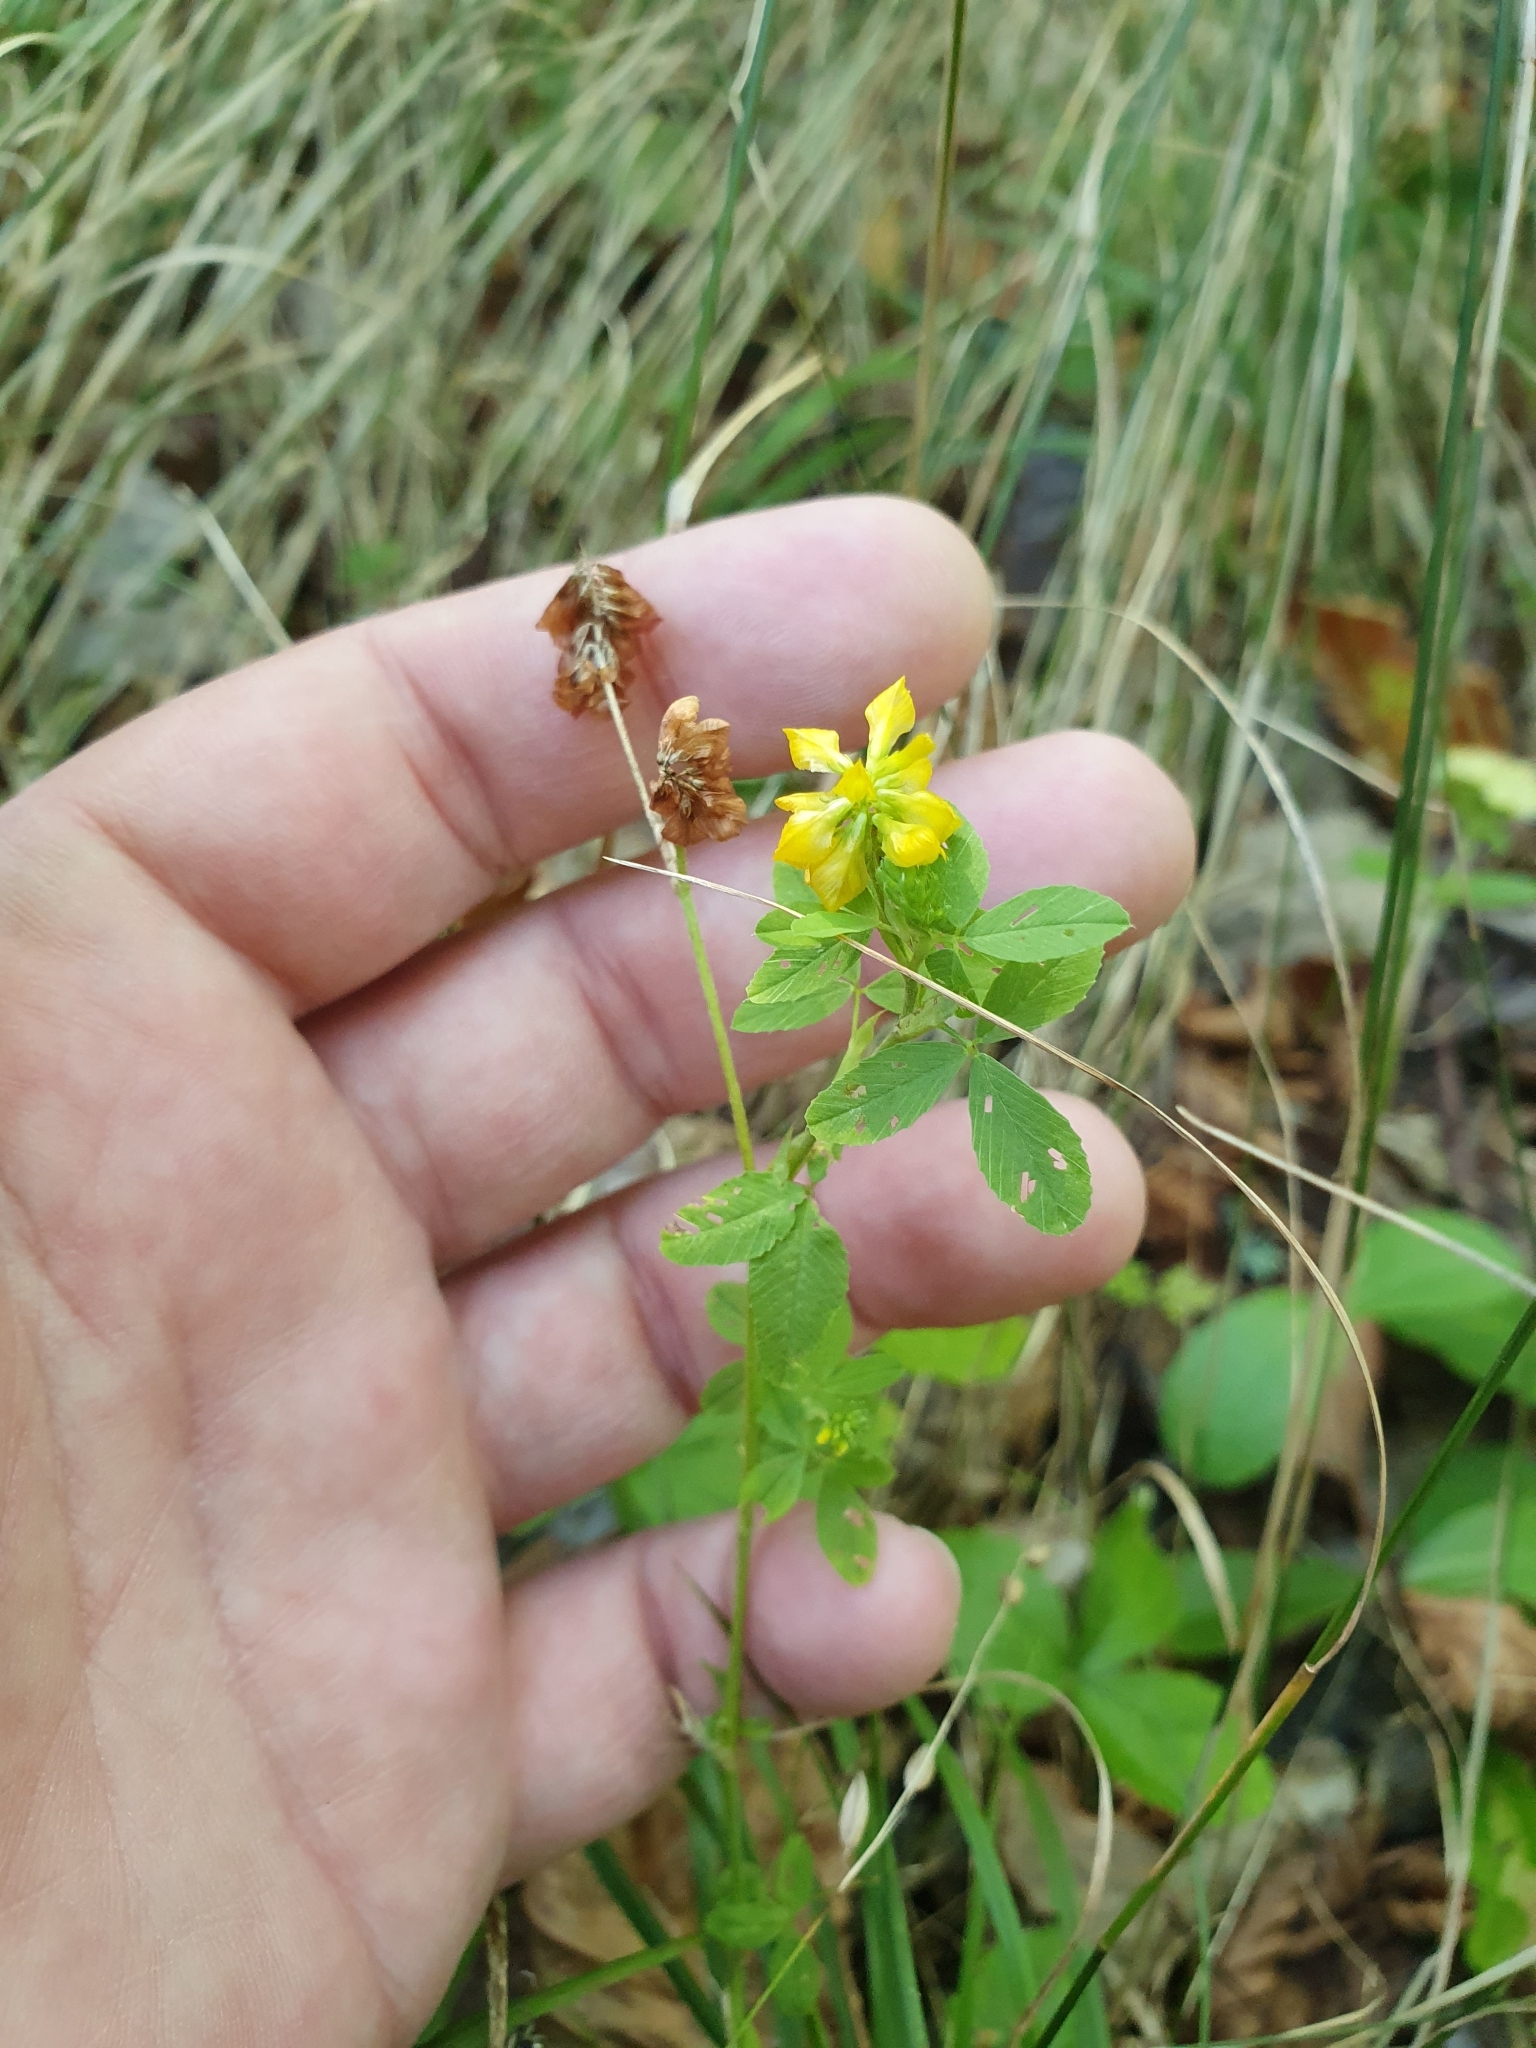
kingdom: Plantae
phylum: Tracheophyta
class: Magnoliopsida
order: Fabales
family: Fabaceae
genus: Trifolium
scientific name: Trifolium aureum
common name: Golden clover
